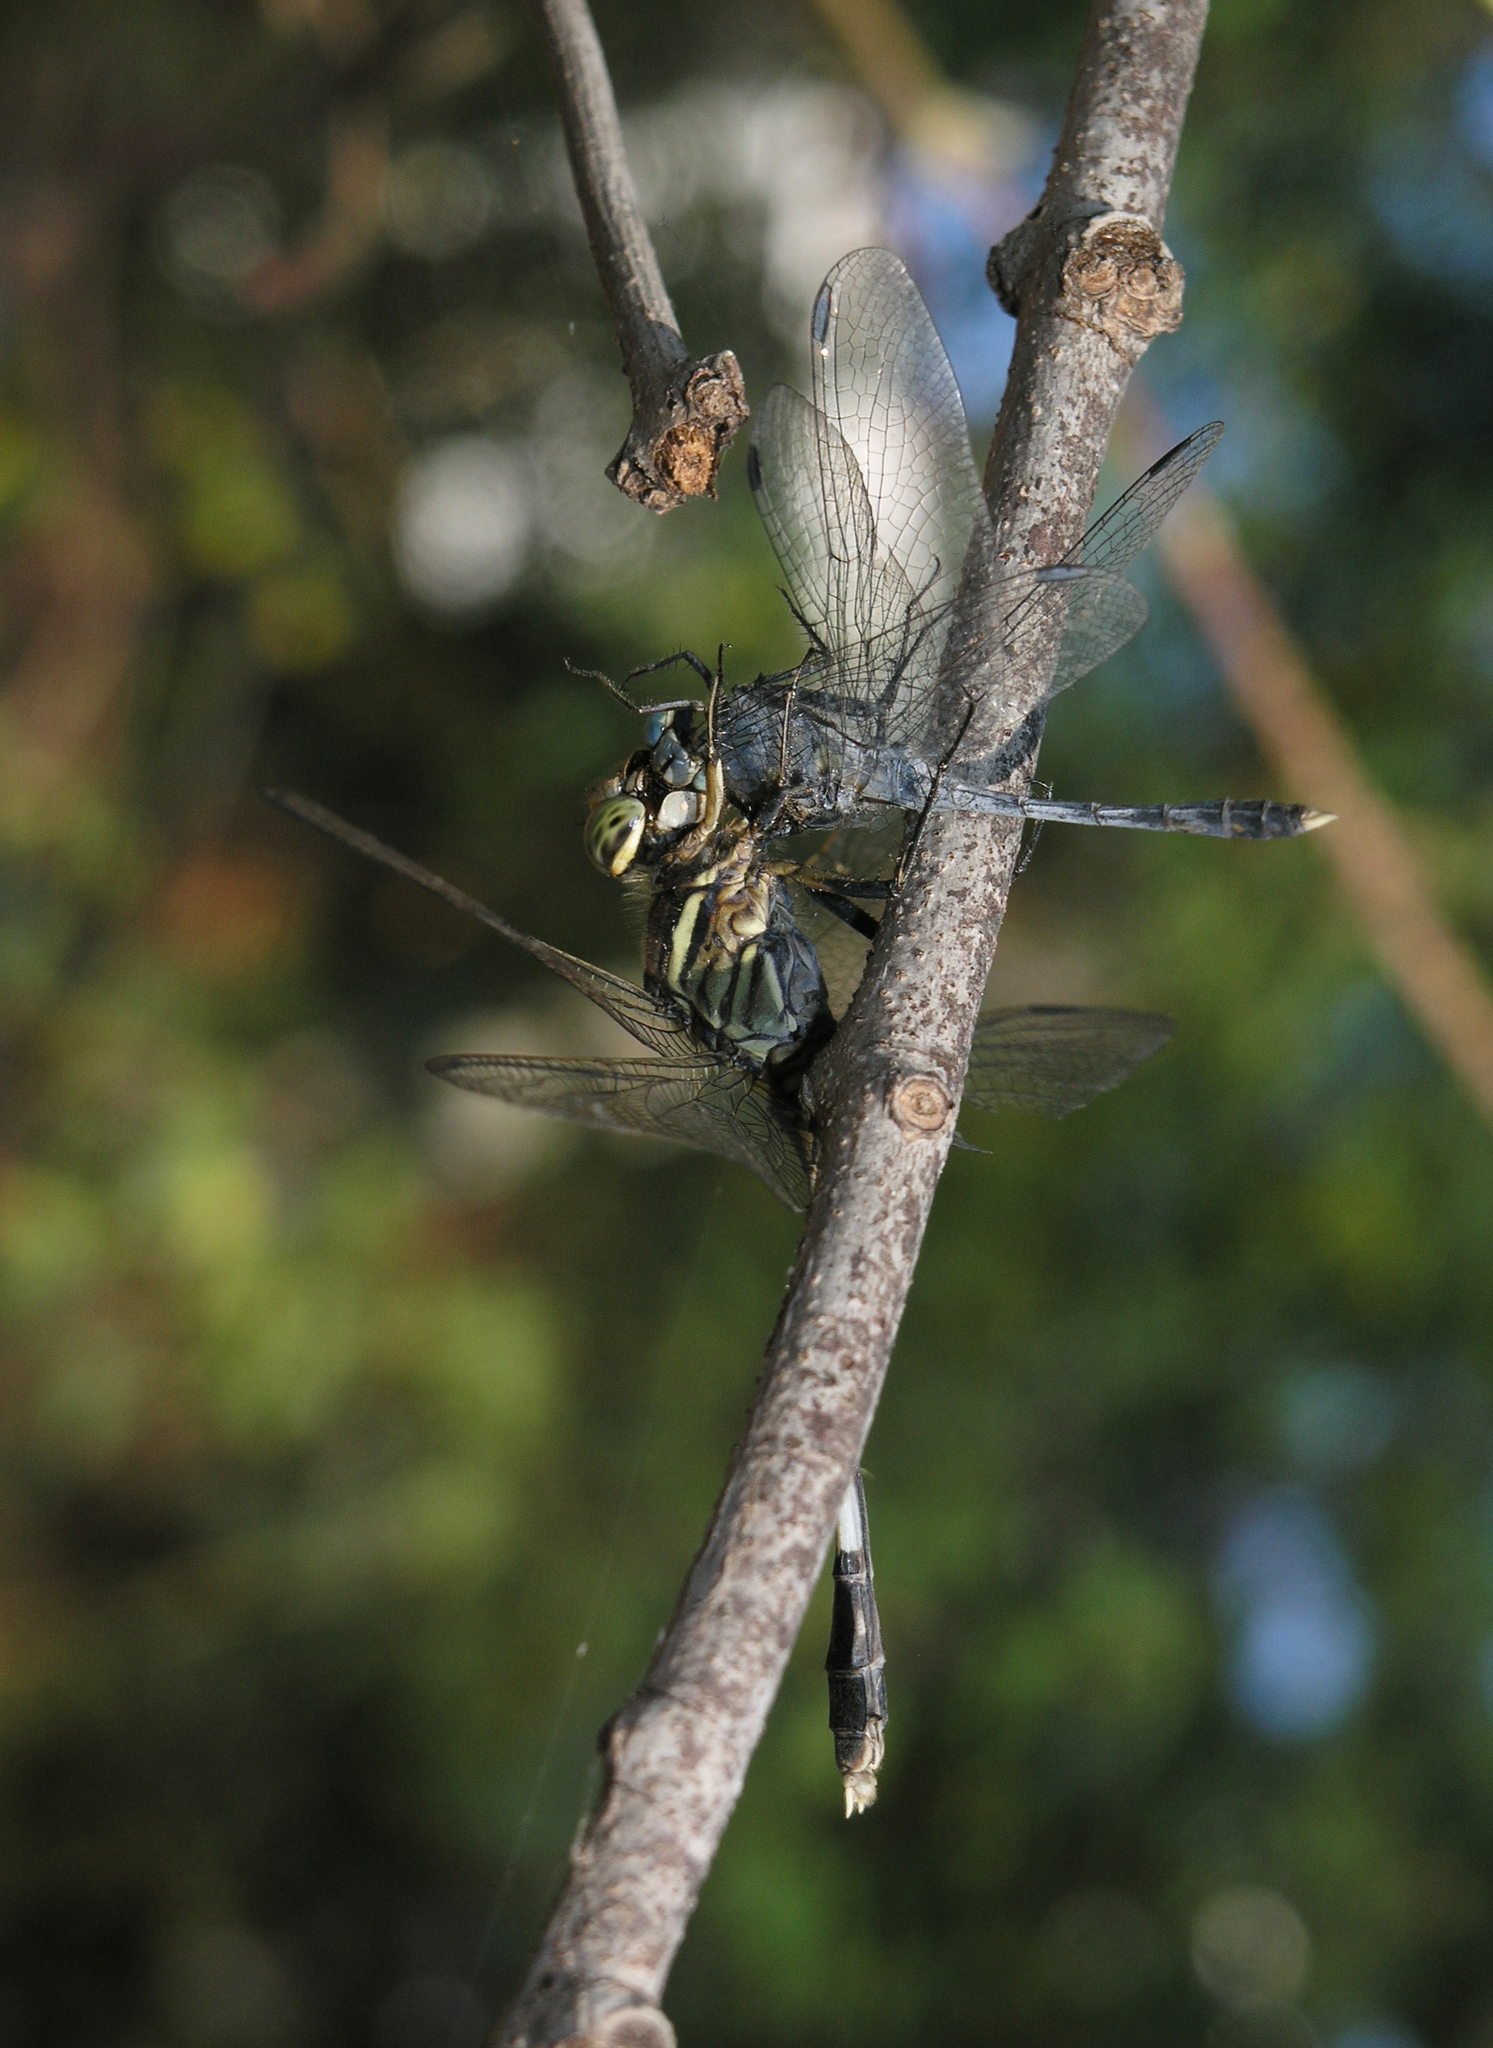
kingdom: Animalia
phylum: Arthropoda
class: Insecta
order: Odonata
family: Libellulidae
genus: Orthetrum
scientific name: Orthetrum sabina
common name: Slender skimmer
